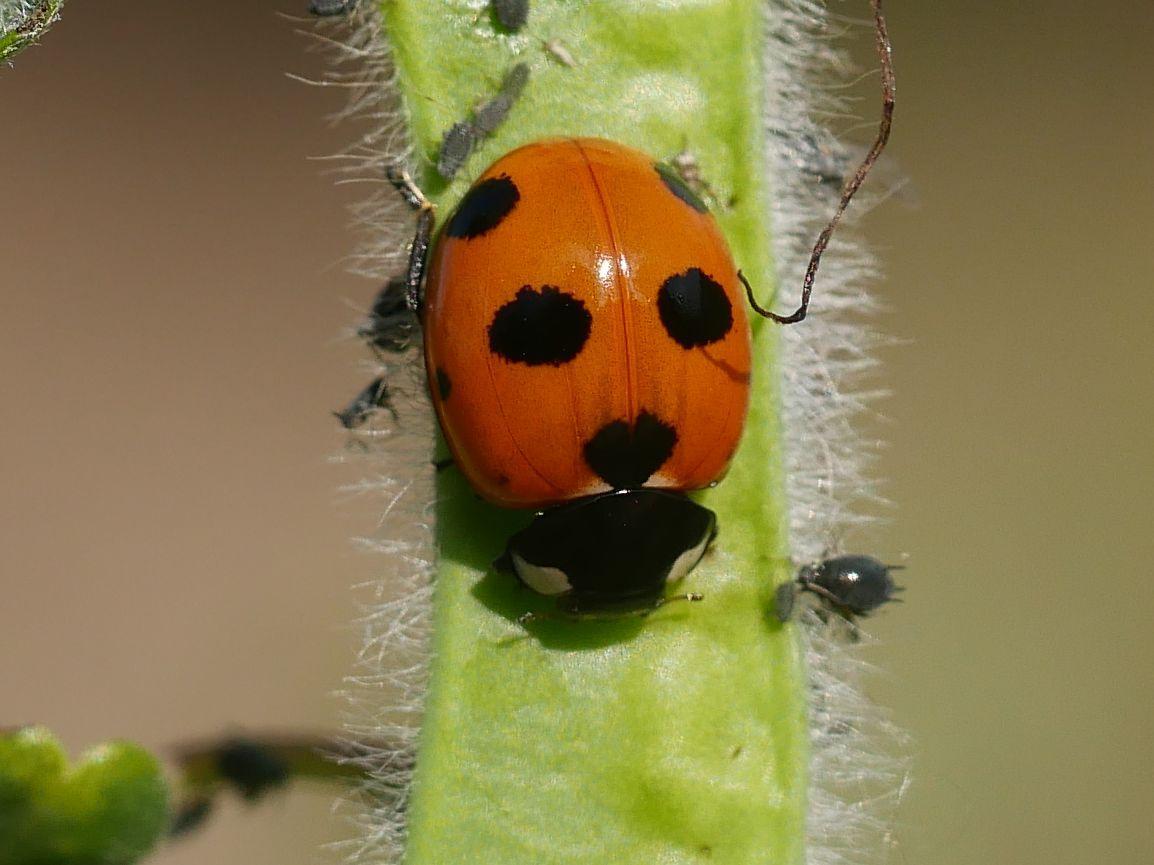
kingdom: Animalia
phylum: Arthropoda
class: Insecta
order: Coleoptera
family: Coccinellidae
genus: Coccinella
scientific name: Coccinella magnifica
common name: Scarce 7-spot ladybird
